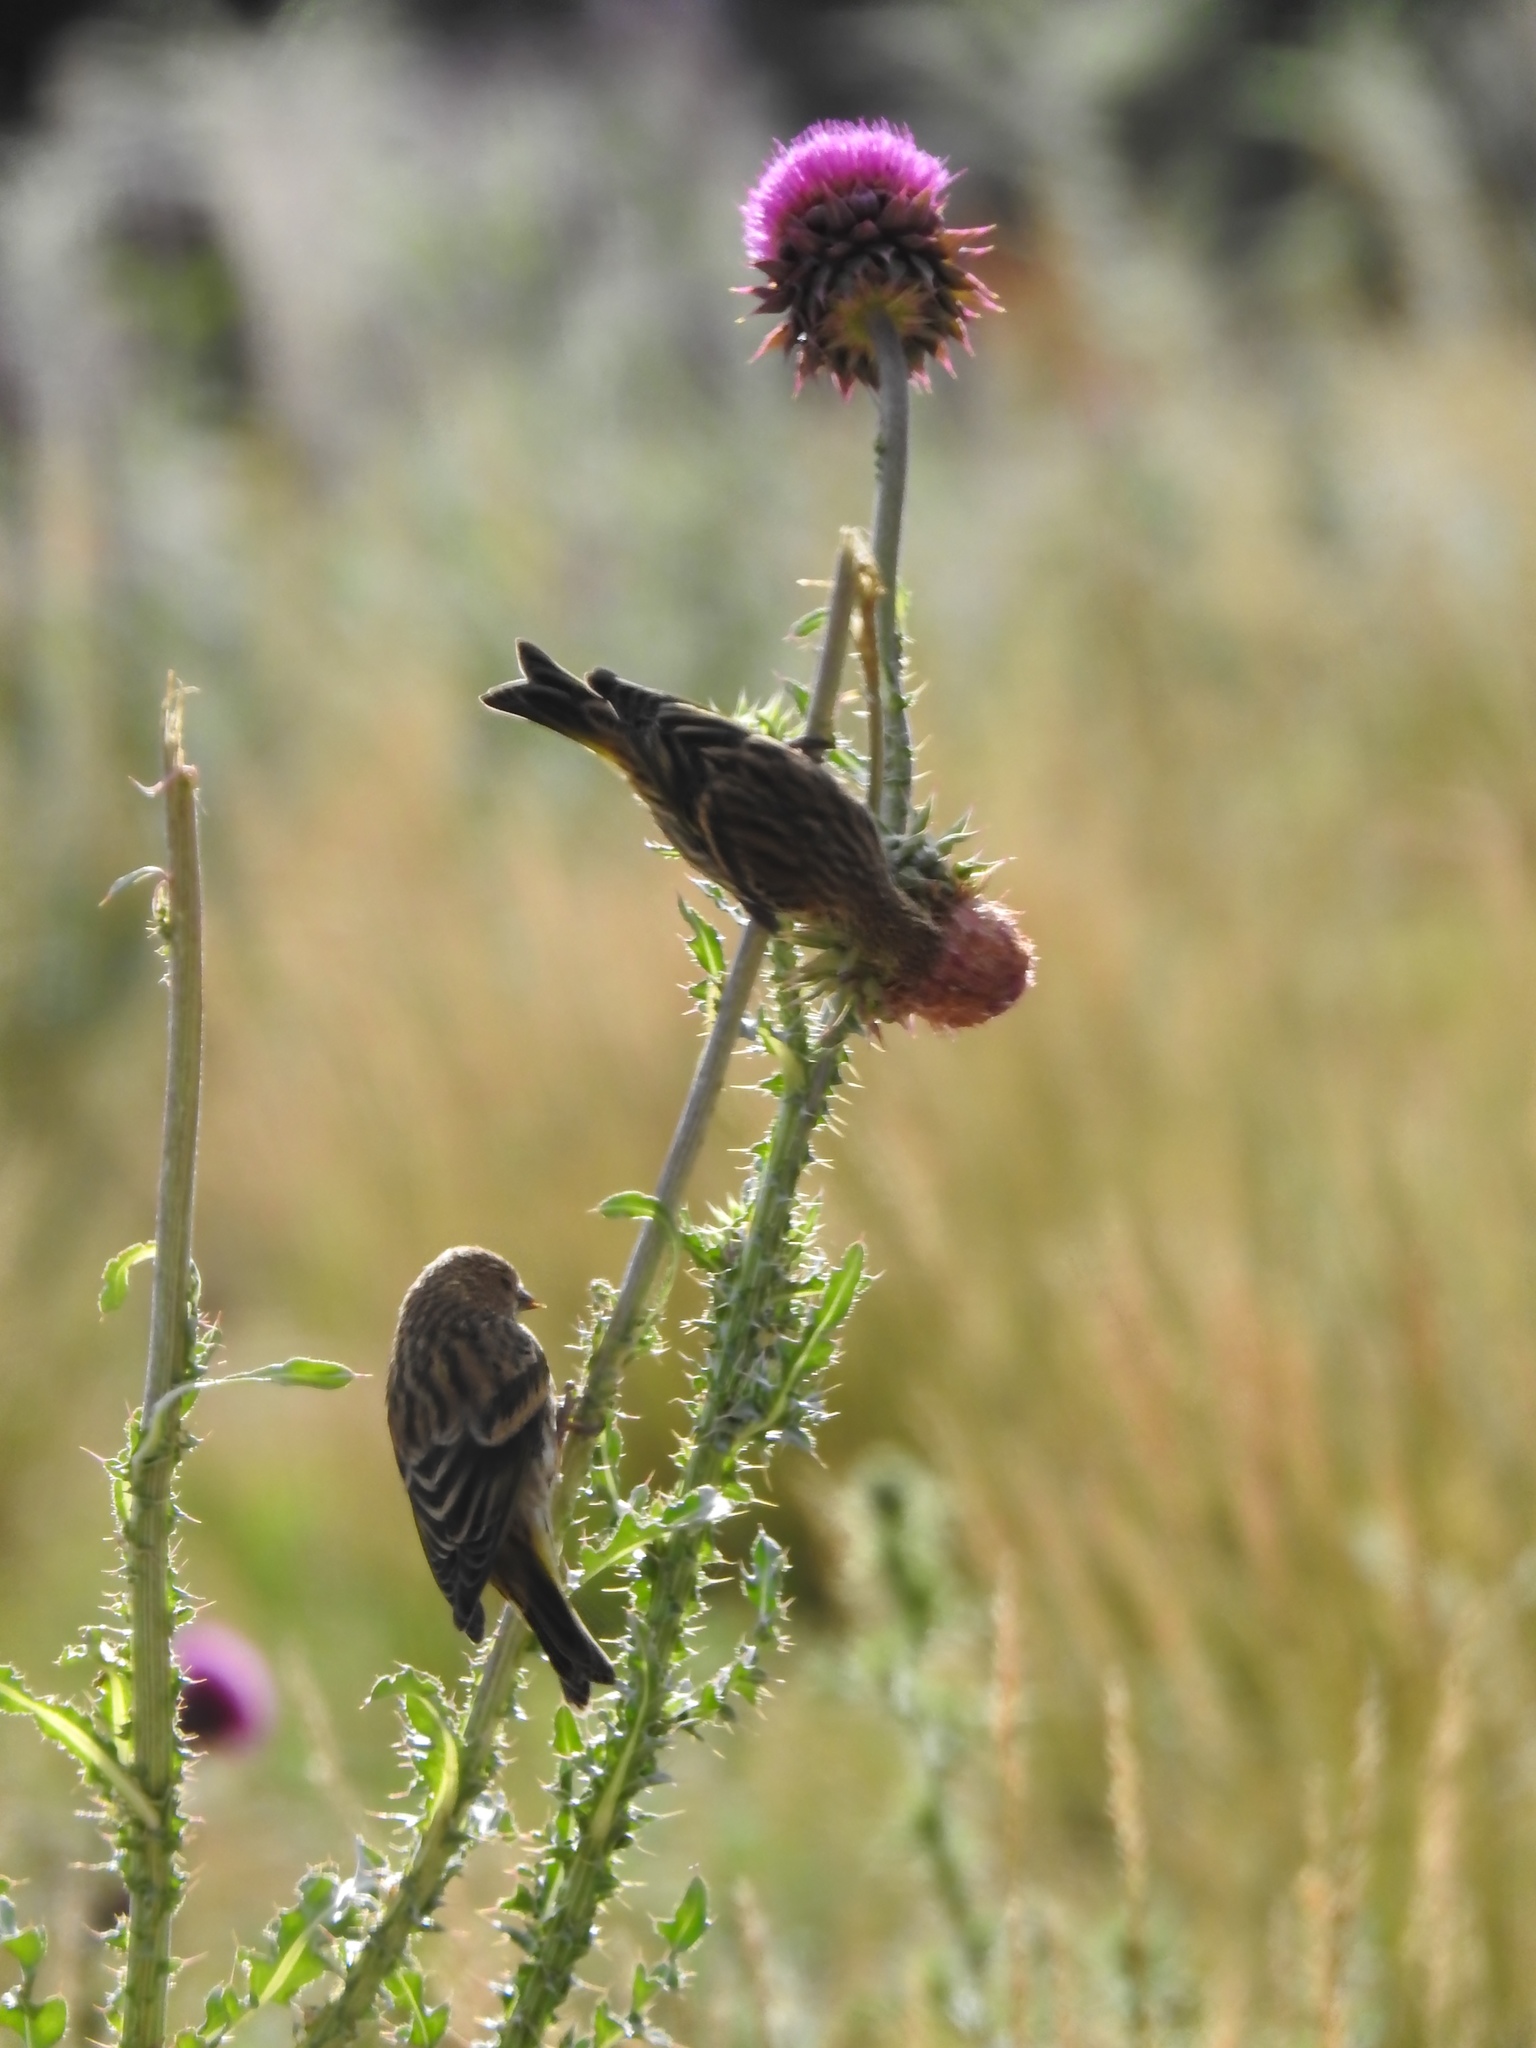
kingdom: Animalia
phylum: Chordata
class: Aves
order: Passeriformes
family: Fringillidae
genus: Spinus
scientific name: Spinus pinus
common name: Pine siskin
